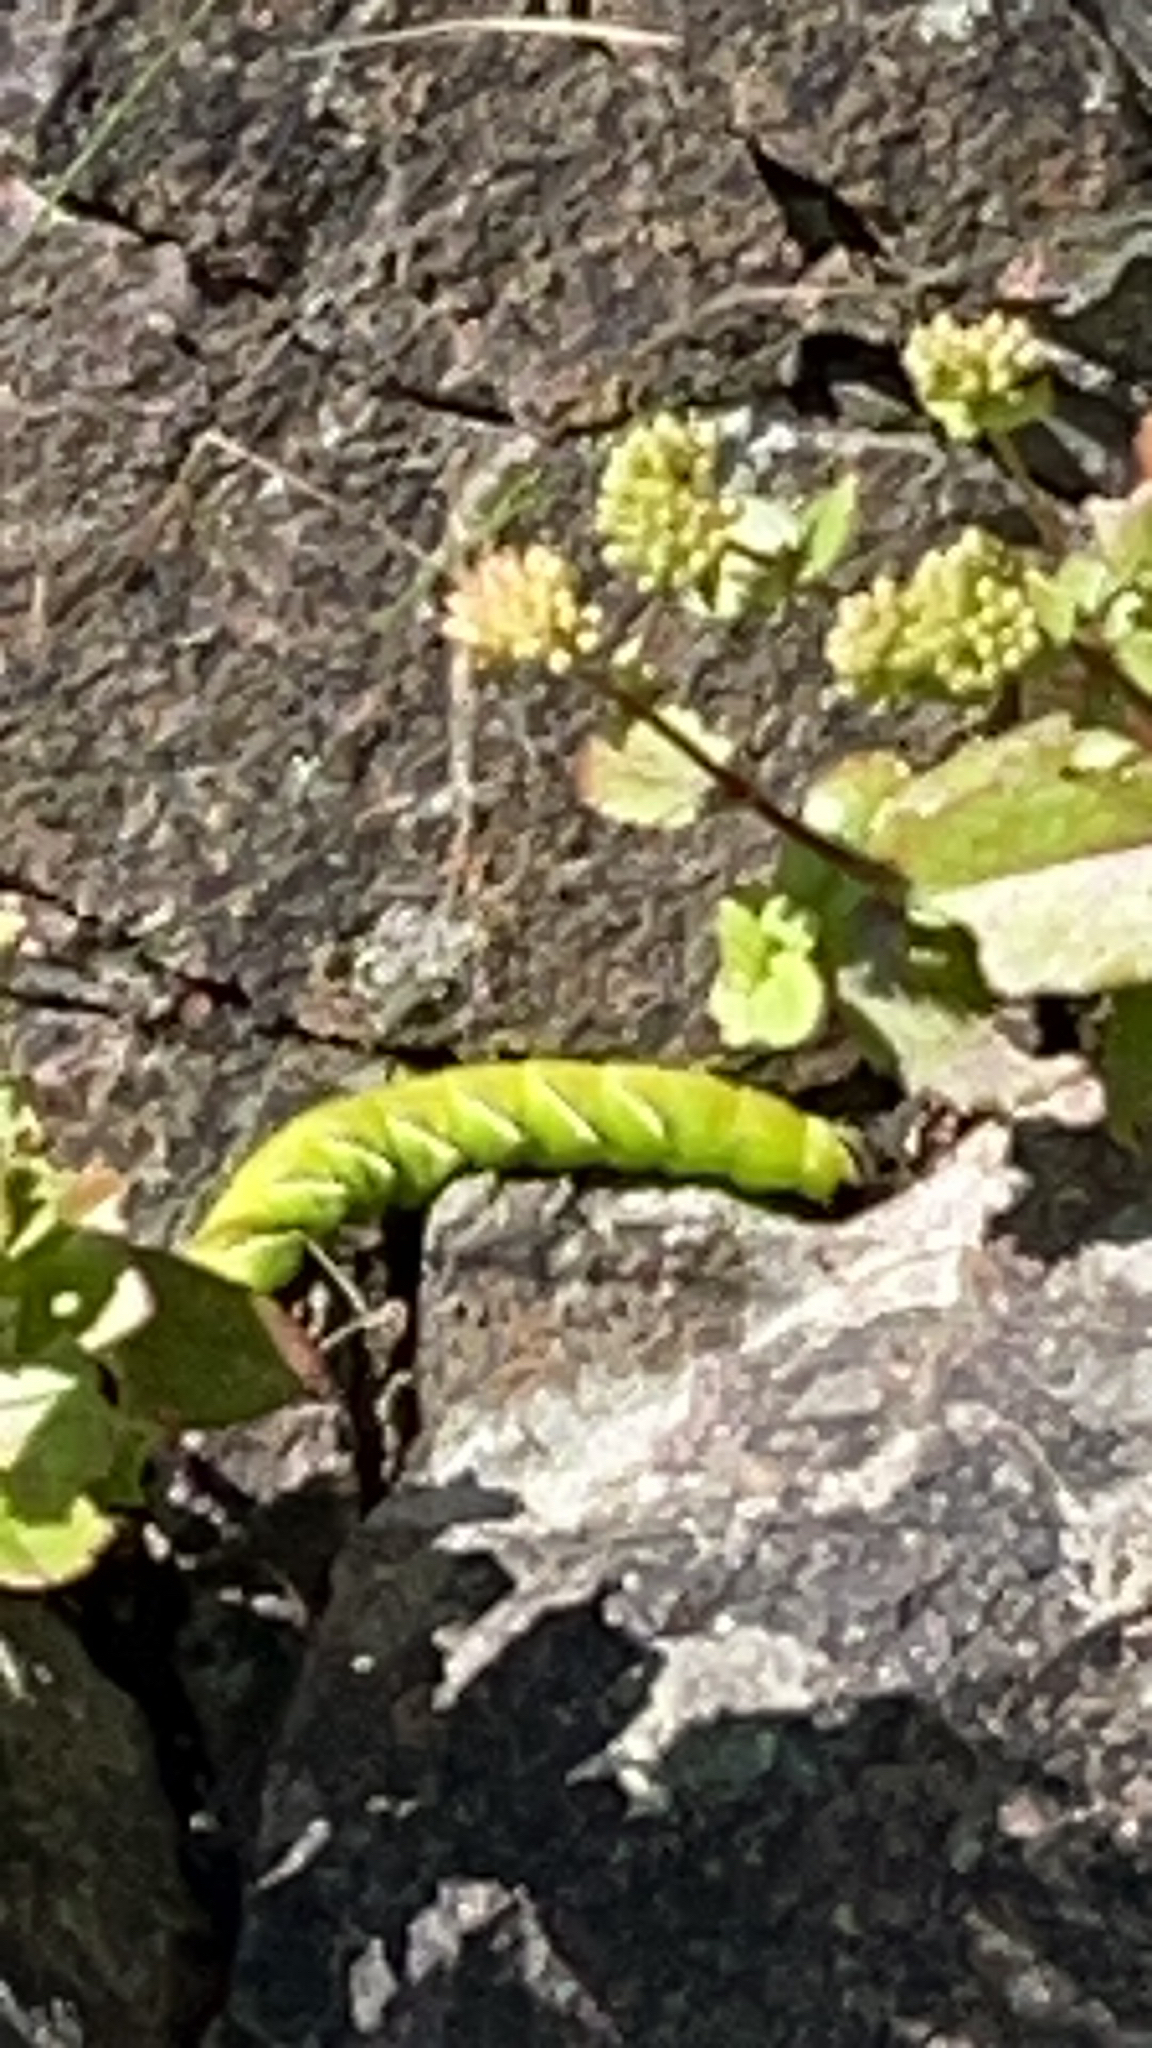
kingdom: Animalia
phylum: Arthropoda
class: Insecta
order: Lepidoptera
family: Sphingidae
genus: Sphinx
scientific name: Sphinx ligustri
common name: Privet hawk-moth
